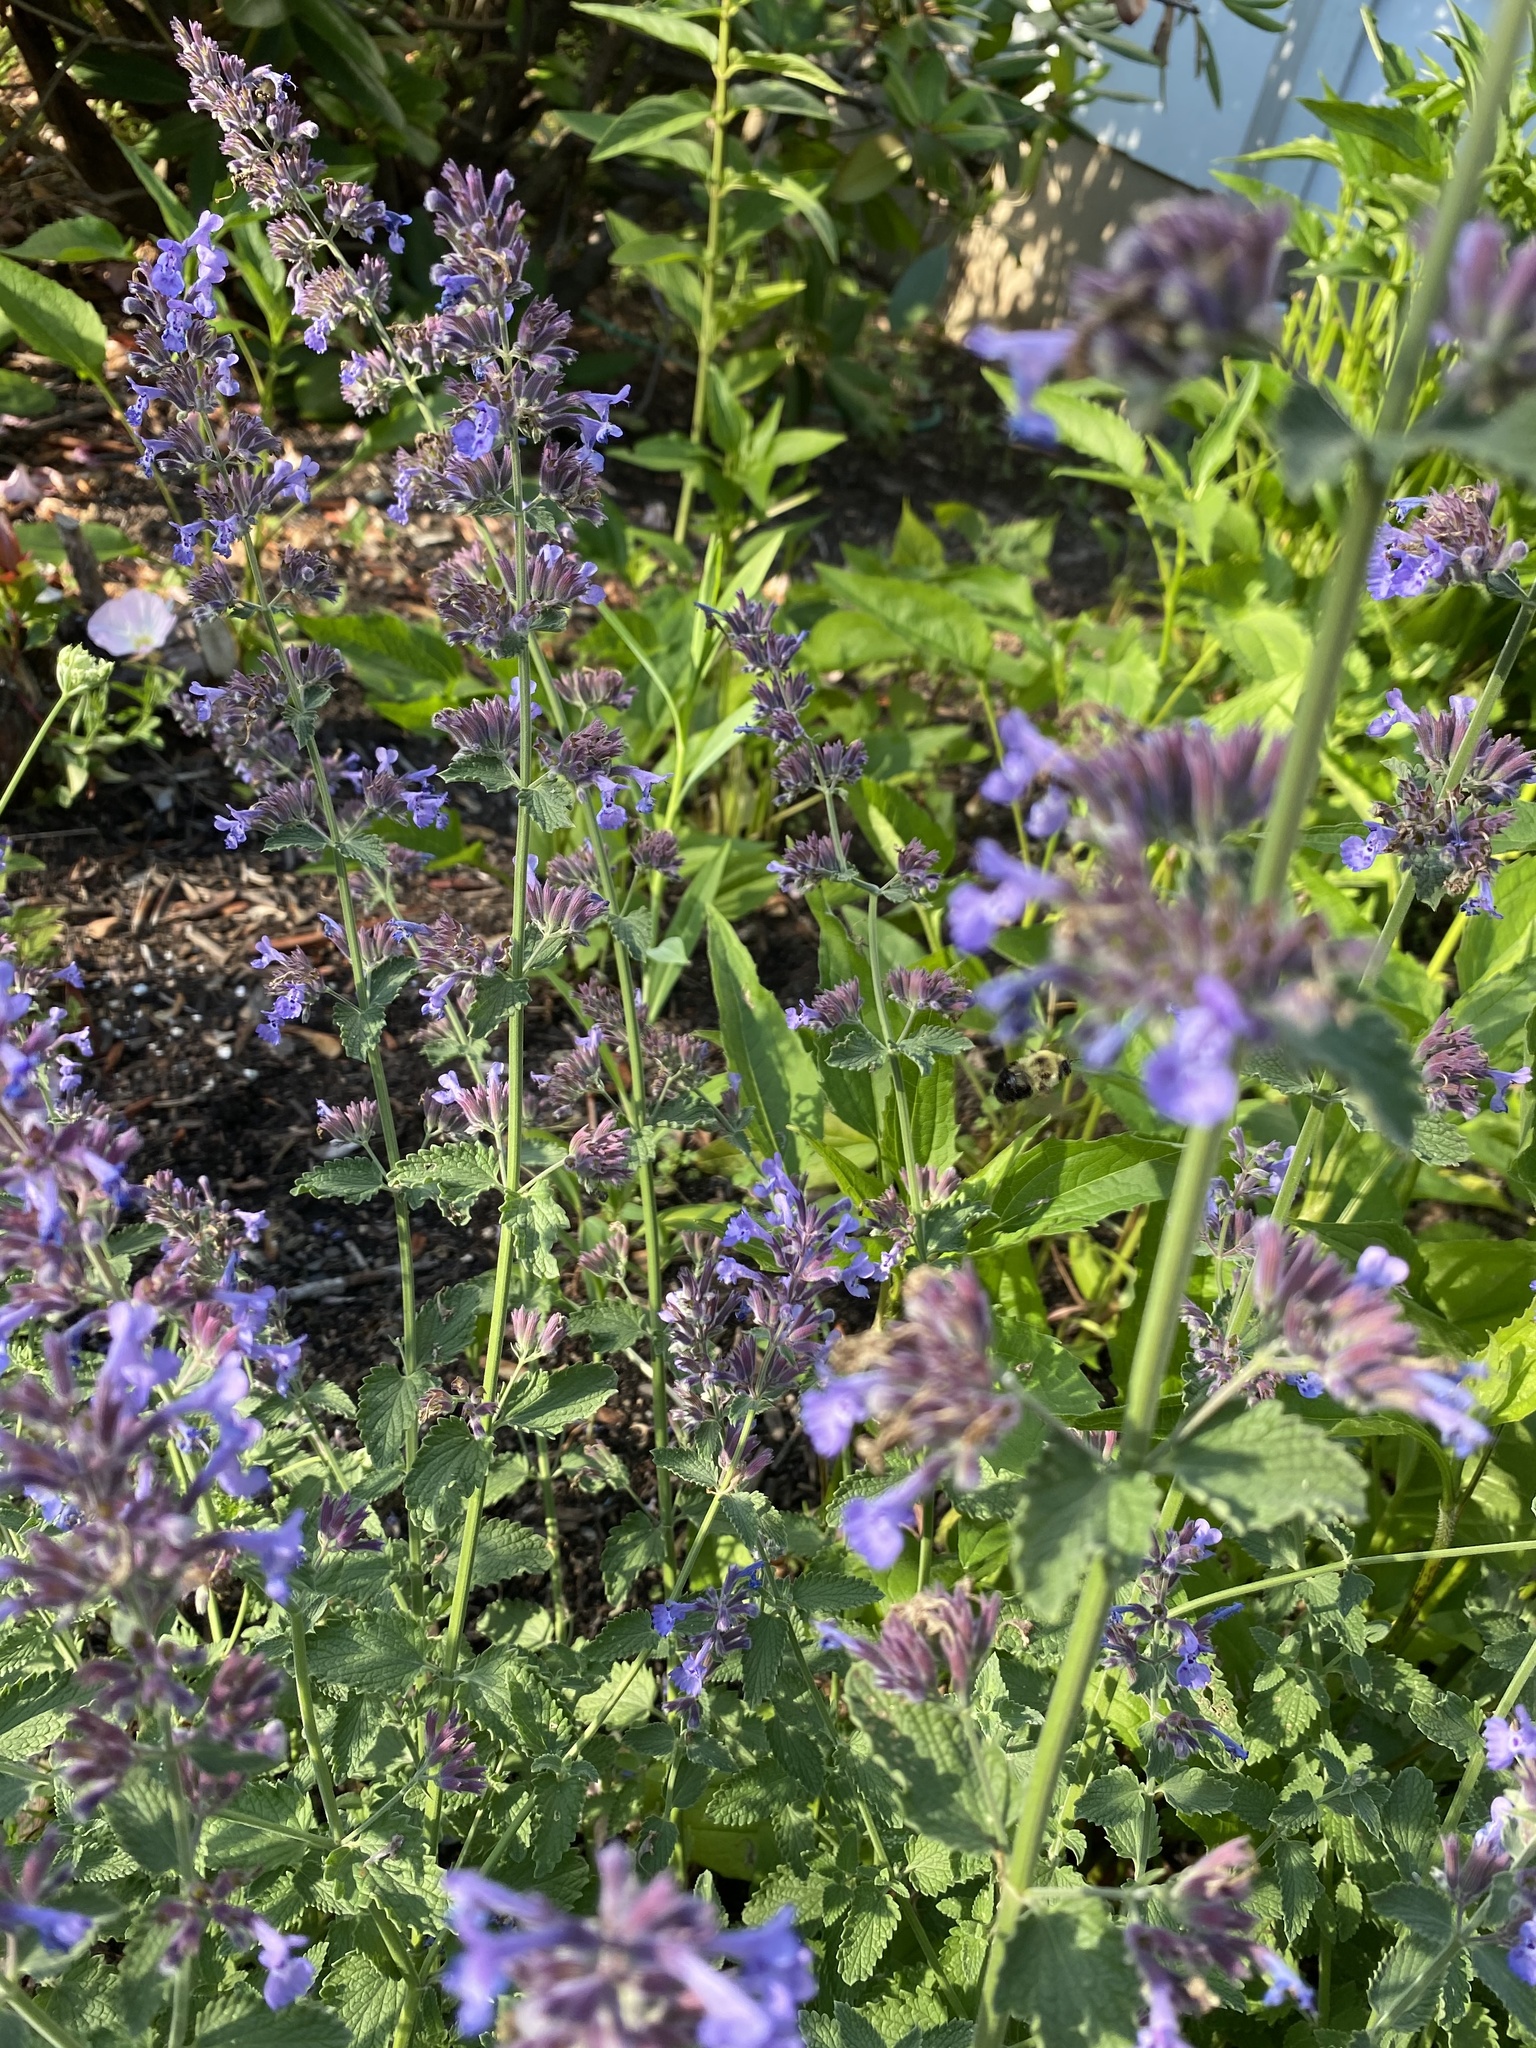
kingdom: Animalia
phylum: Arthropoda
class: Insecta
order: Hymenoptera
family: Apidae
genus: Bombus
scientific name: Bombus bimaculatus
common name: Two-spotted bumble bee
